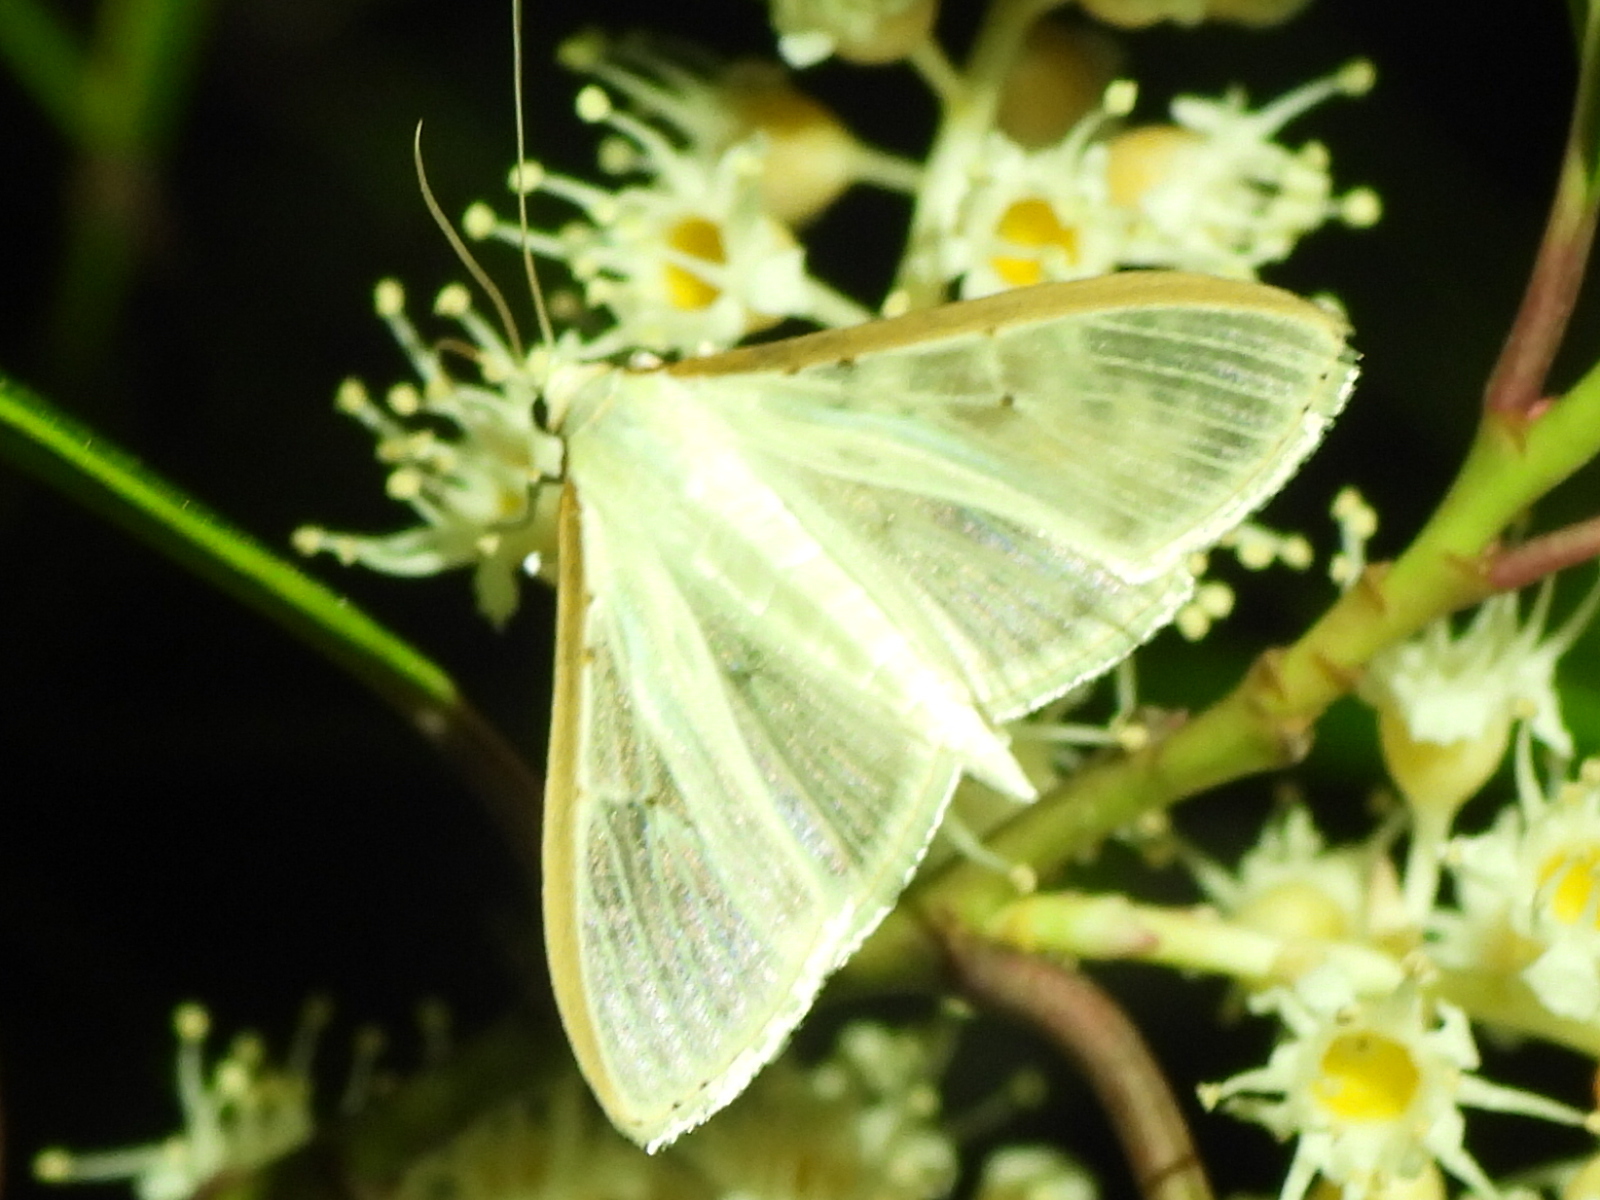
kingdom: Animalia
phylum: Arthropoda
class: Insecta
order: Lepidoptera
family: Crambidae
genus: Palpita
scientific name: Palpita quadristigmalis
